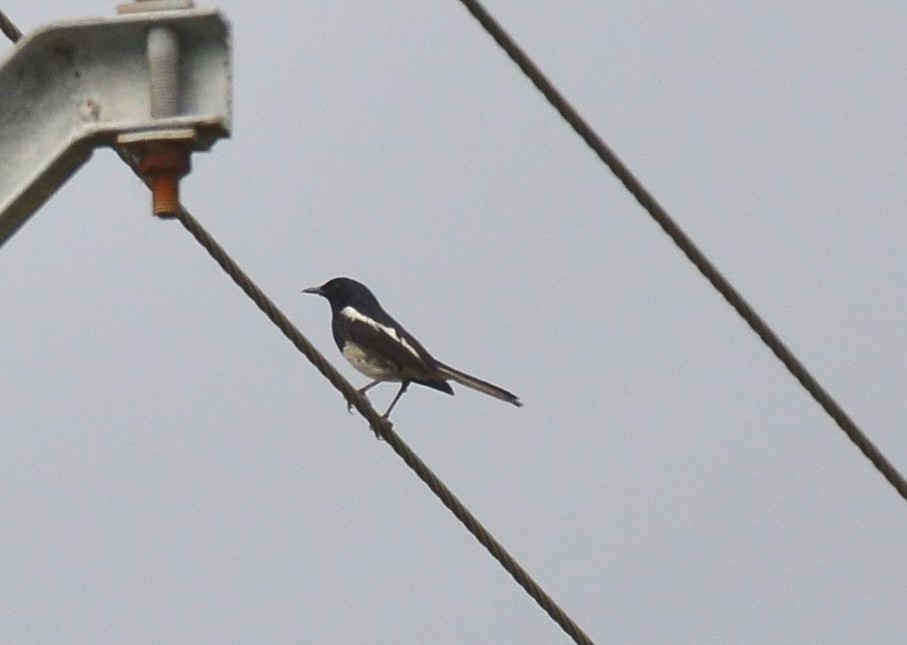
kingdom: Animalia
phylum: Chordata
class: Aves
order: Passeriformes
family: Muscicapidae
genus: Copsychus
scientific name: Copsychus saularis
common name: Oriental magpie-robin
